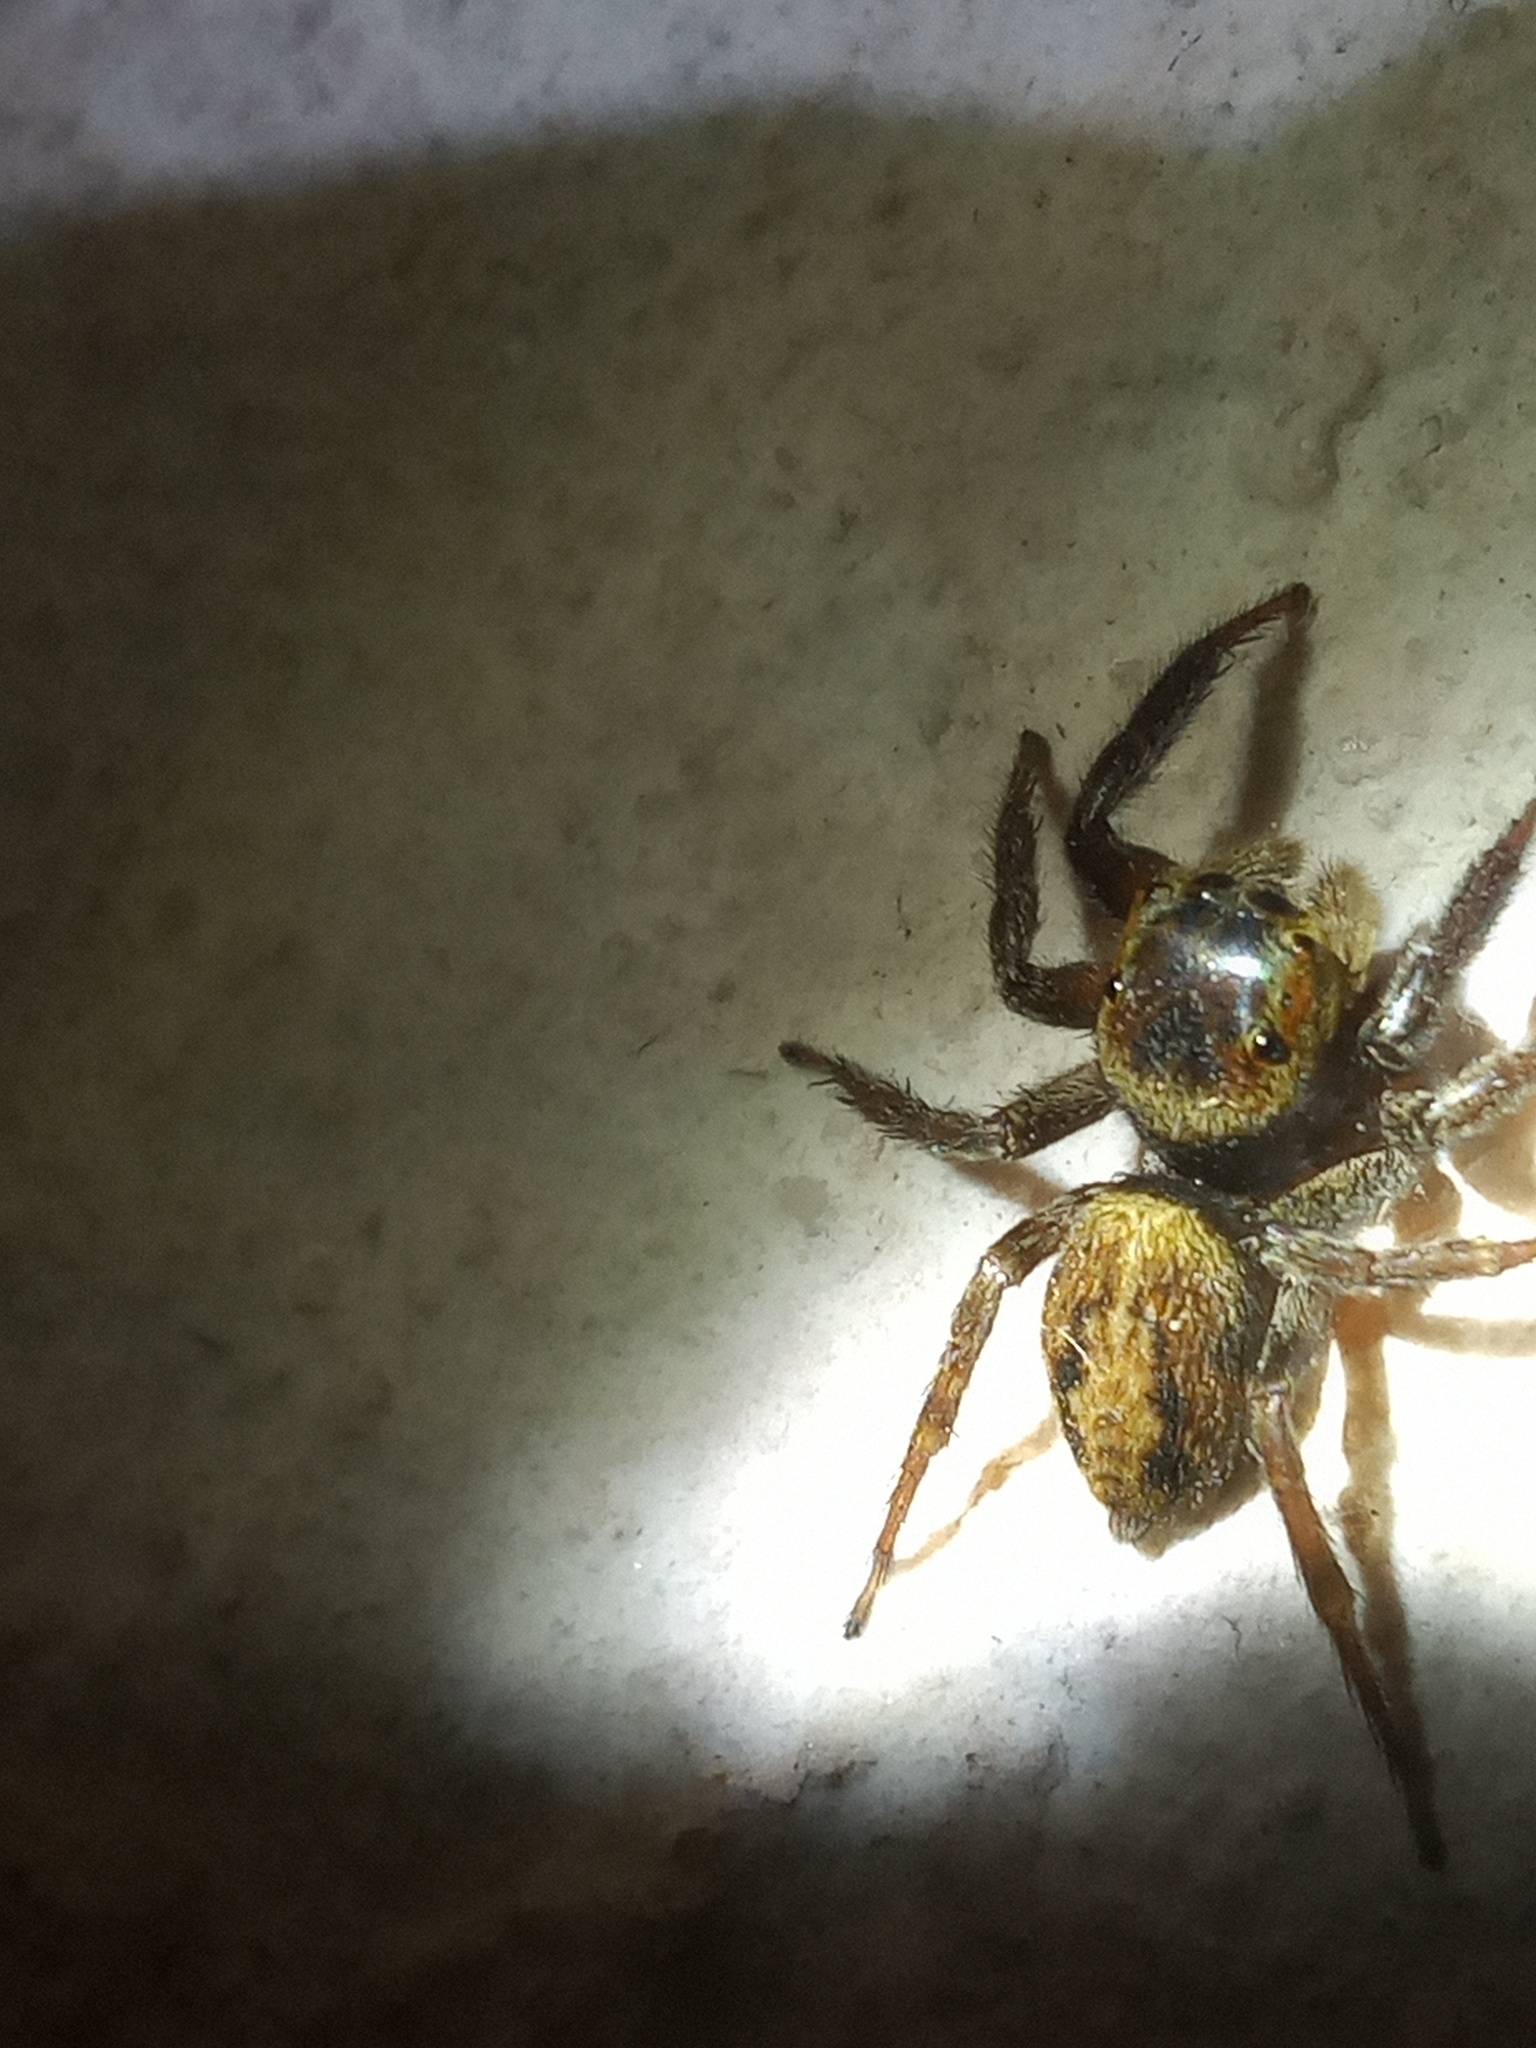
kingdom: Animalia
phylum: Arthropoda
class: Arachnida
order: Araneae
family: Salticidae
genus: Hasarius
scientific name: Hasarius adansoni
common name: Jumping spider
